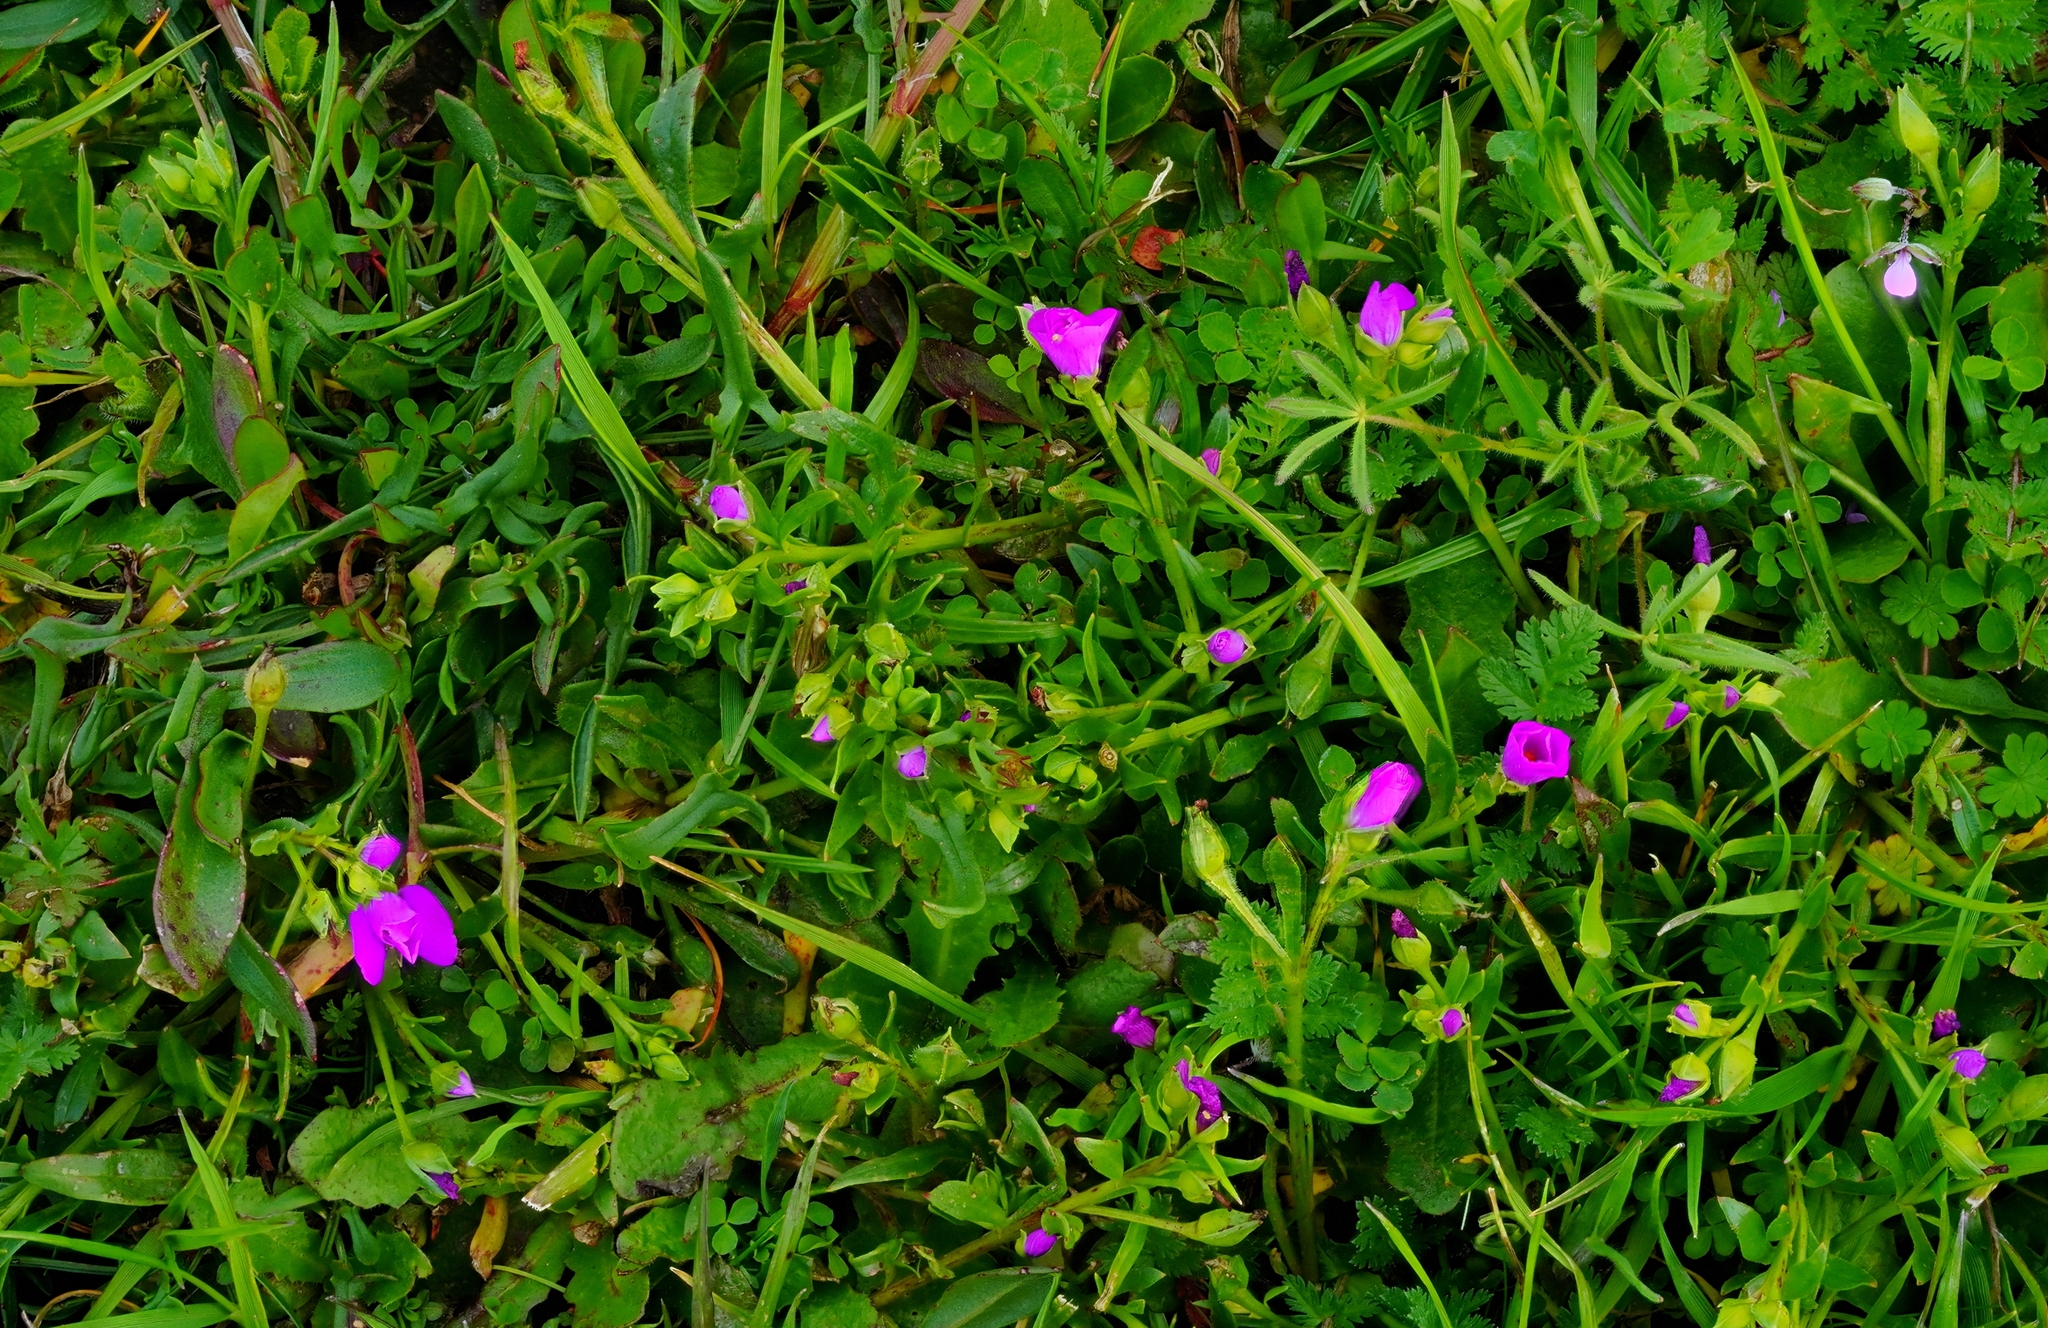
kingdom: Plantae
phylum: Tracheophyta
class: Magnoliopsida
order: Caryophyllales
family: Montiaceae
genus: Calandrinia
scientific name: Calandrinia menziesii
